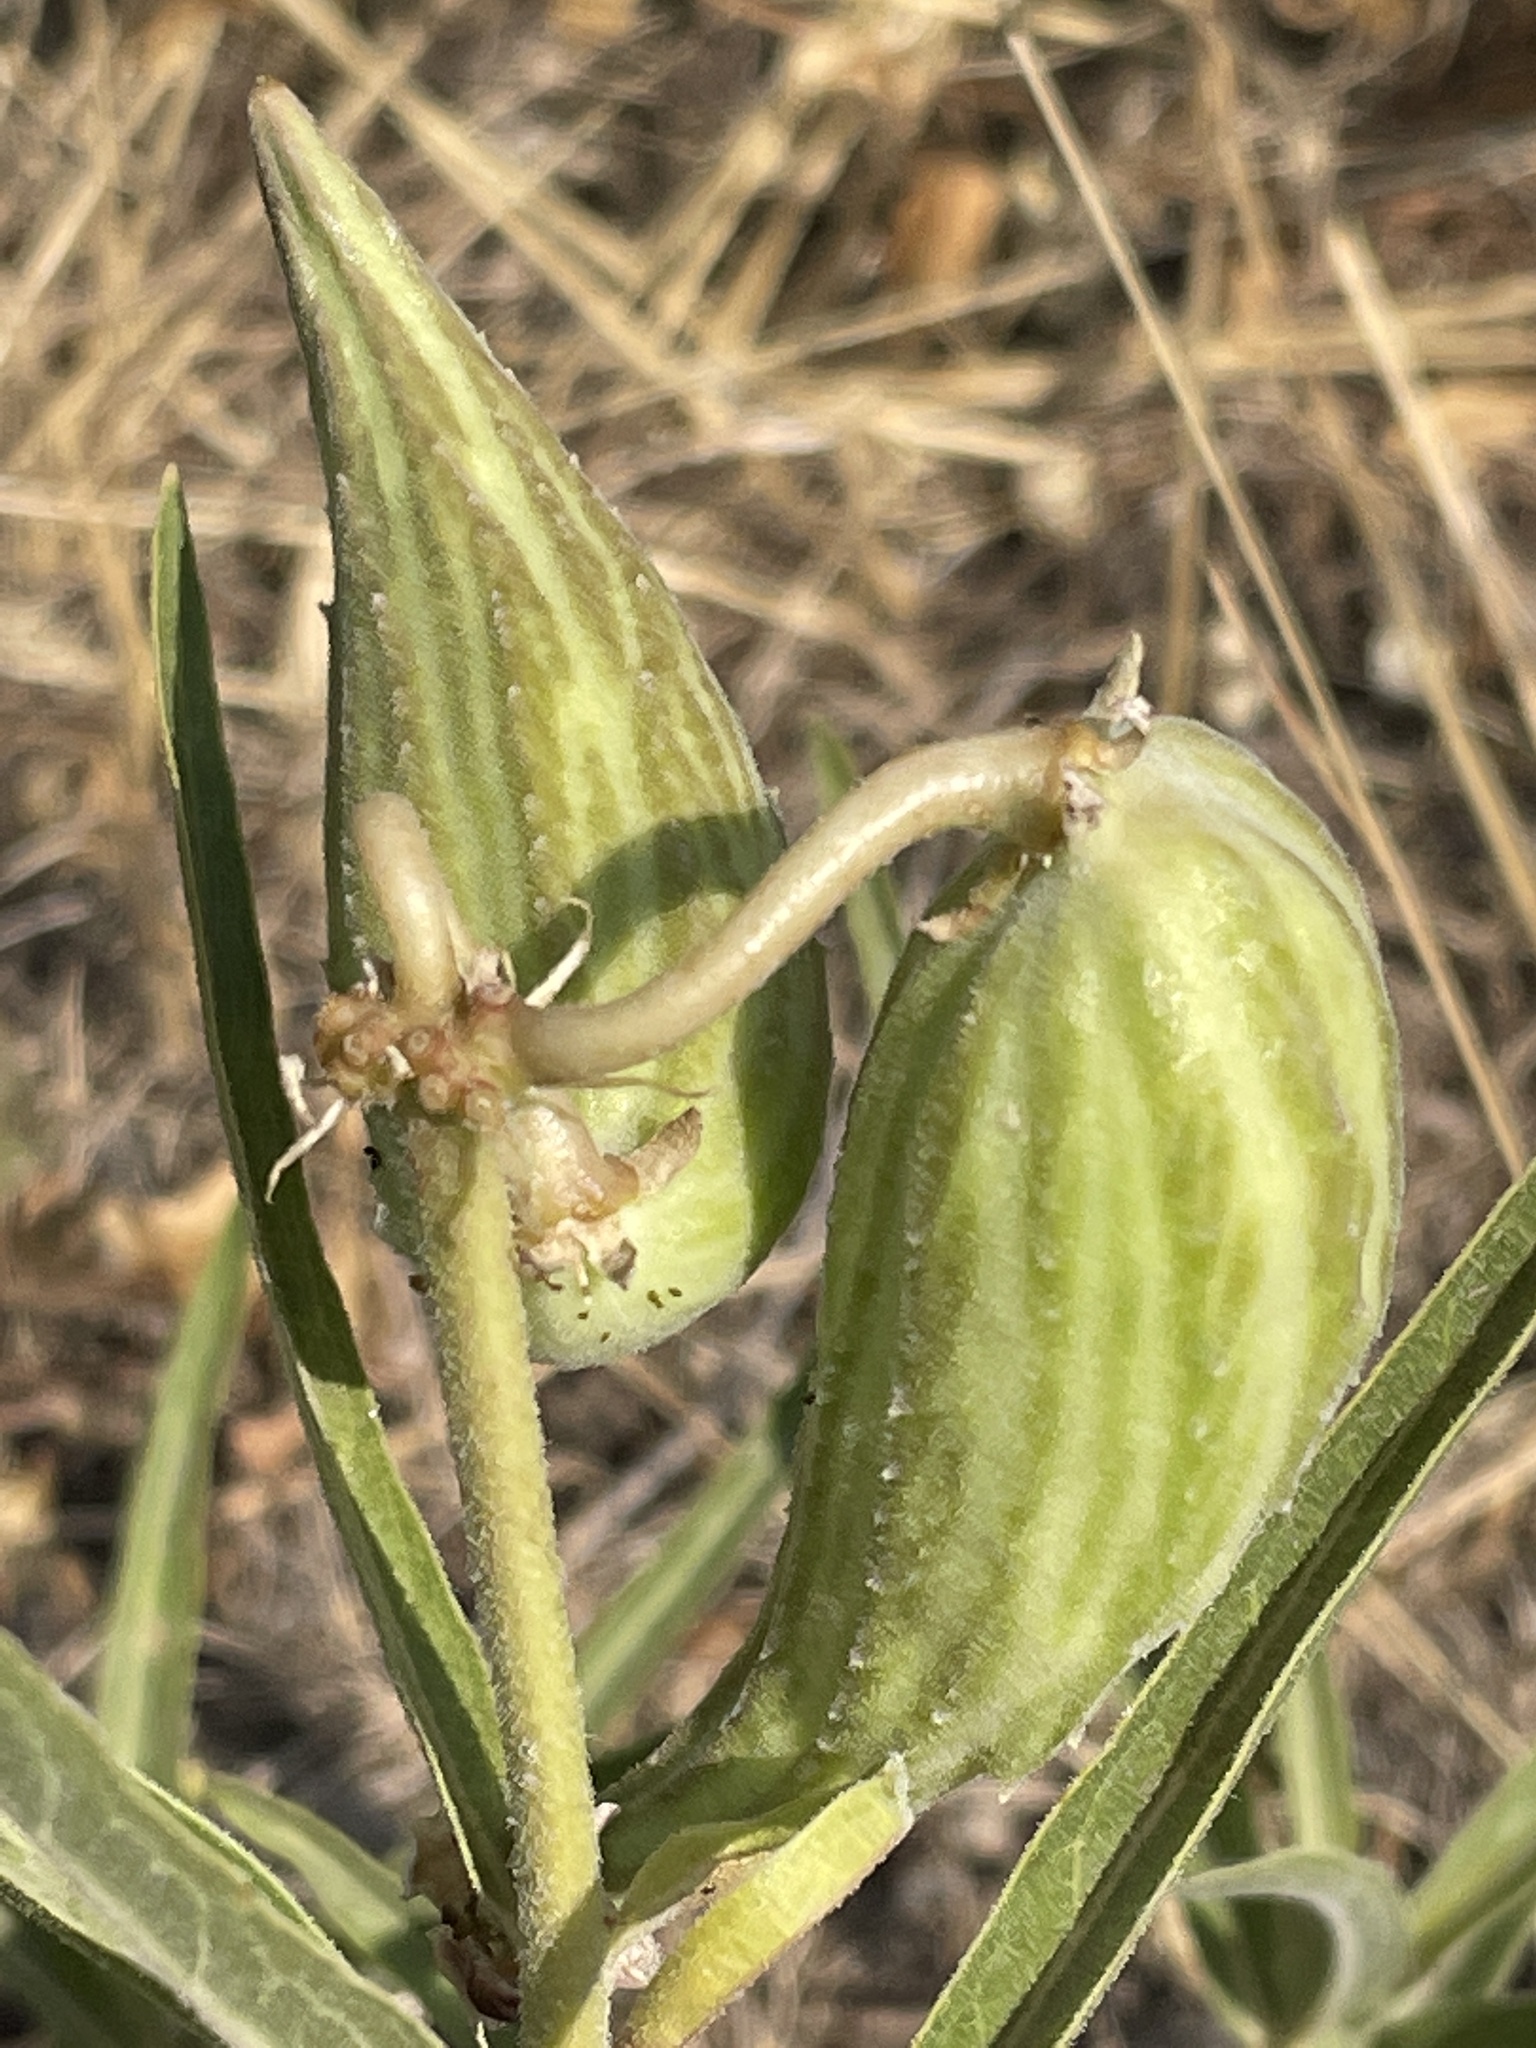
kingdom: Plantae
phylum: Tracheophyta
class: Magnoliopsida
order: Gentianales
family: Apocynaceae
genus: Asclepias
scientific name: Asclepias asperula
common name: Antelope horns
